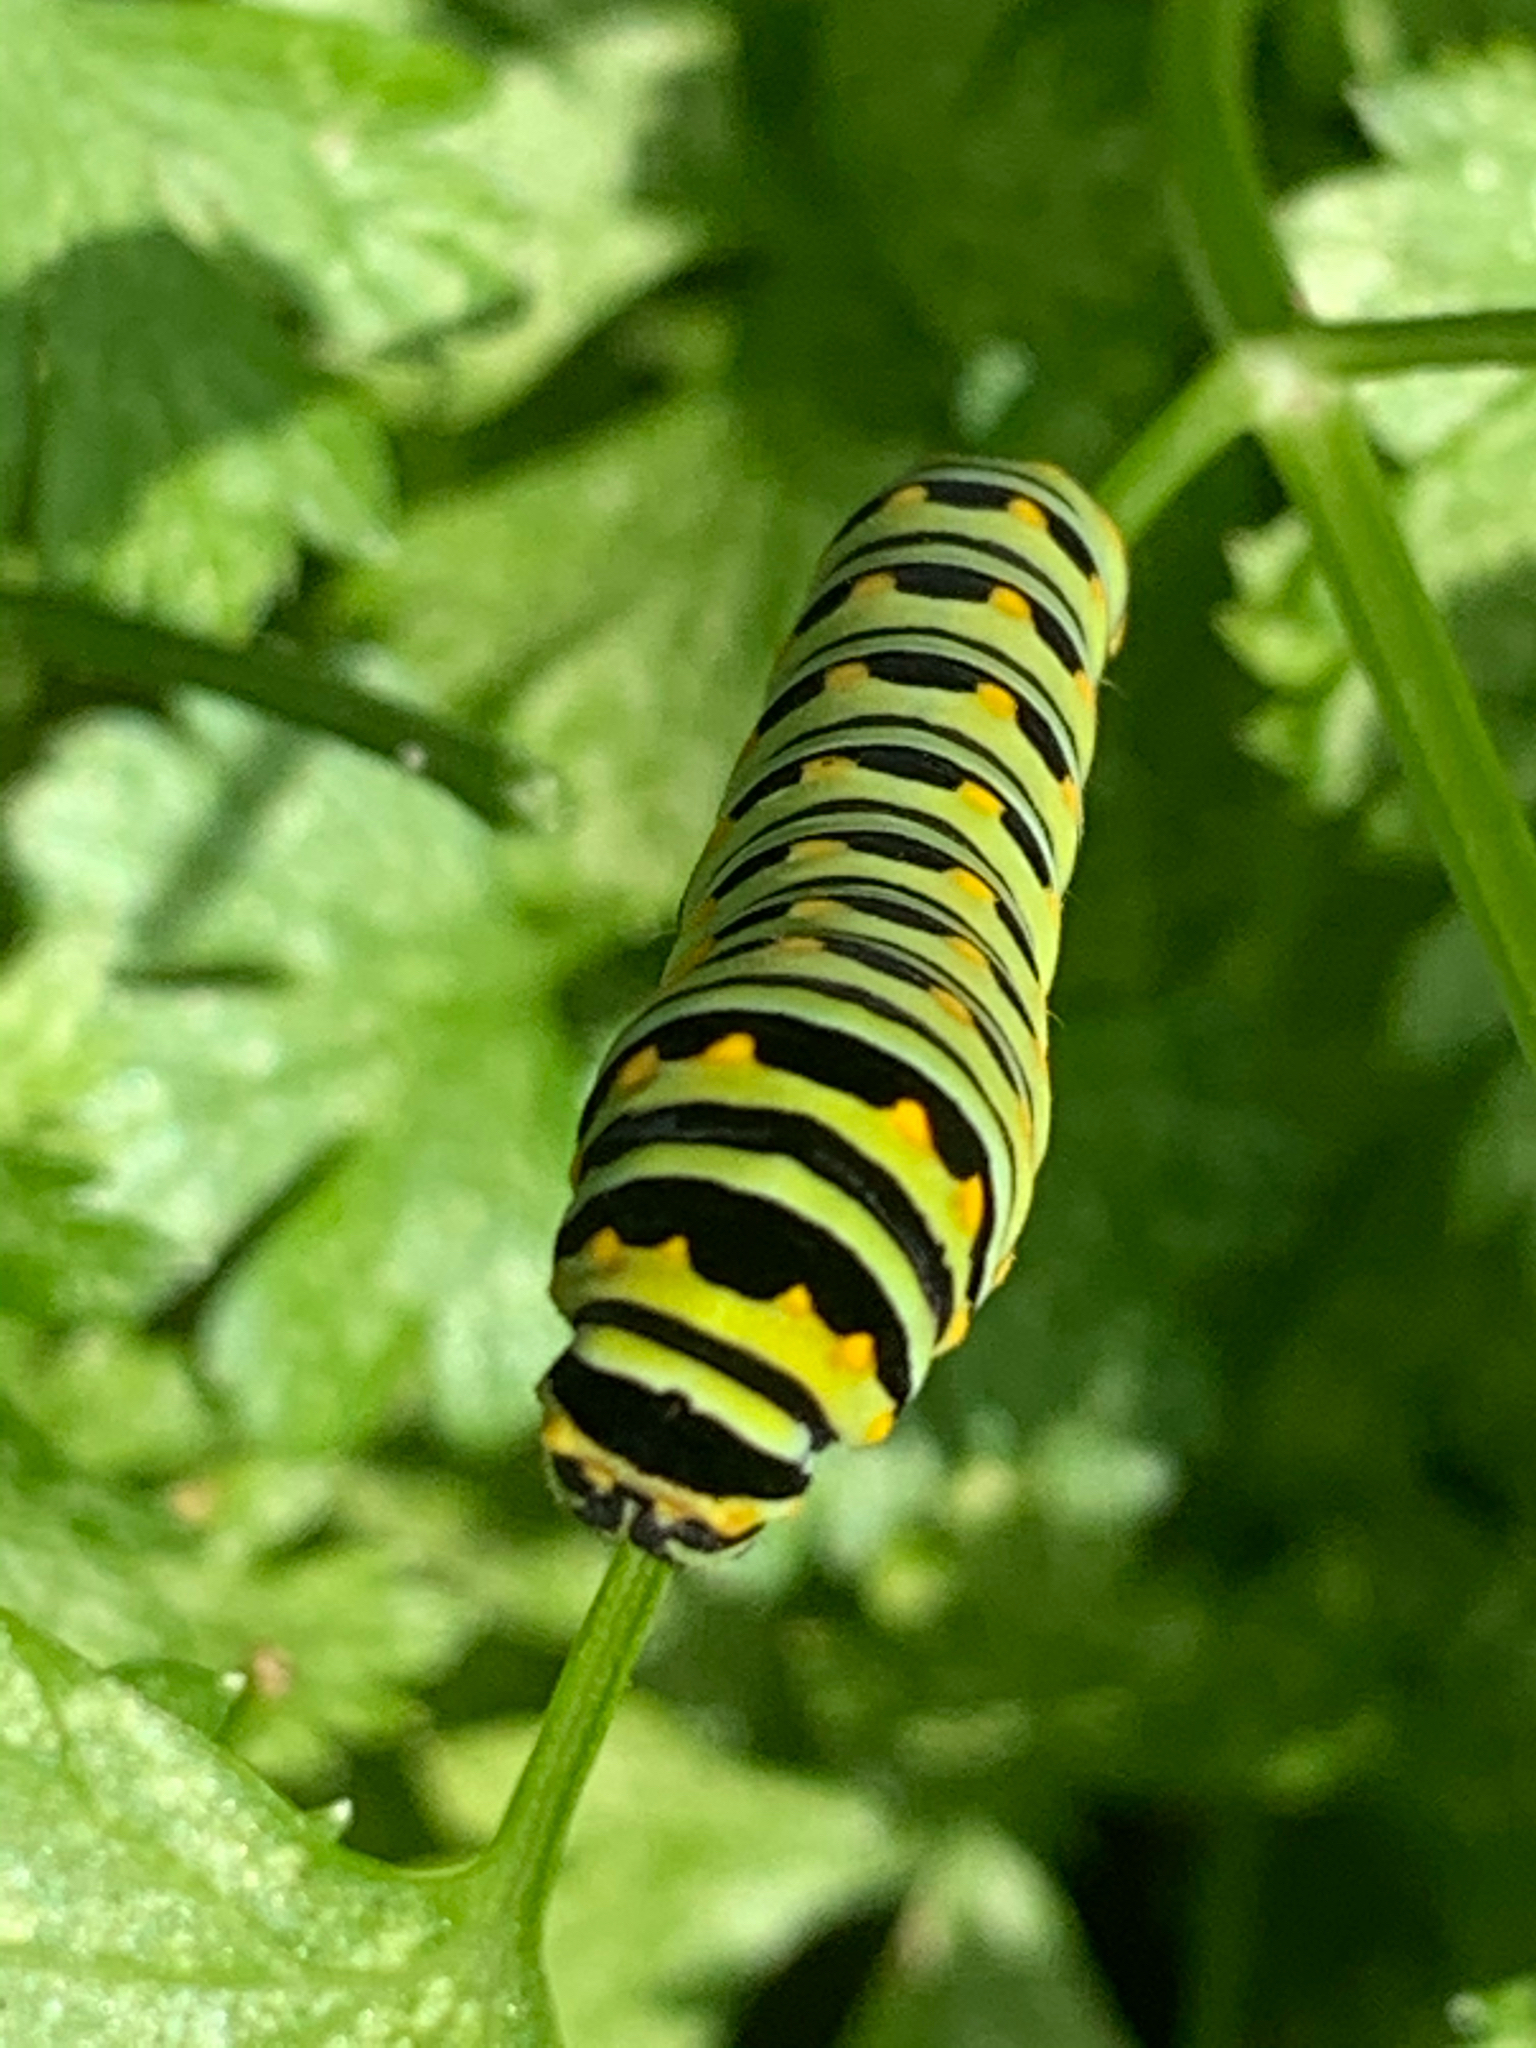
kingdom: Animalia
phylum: Arthropoda
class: Insecta
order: Lepidoptera
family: Papilionidae
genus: Papilio
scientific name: Papilio polyxenes
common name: Black swallowtail
